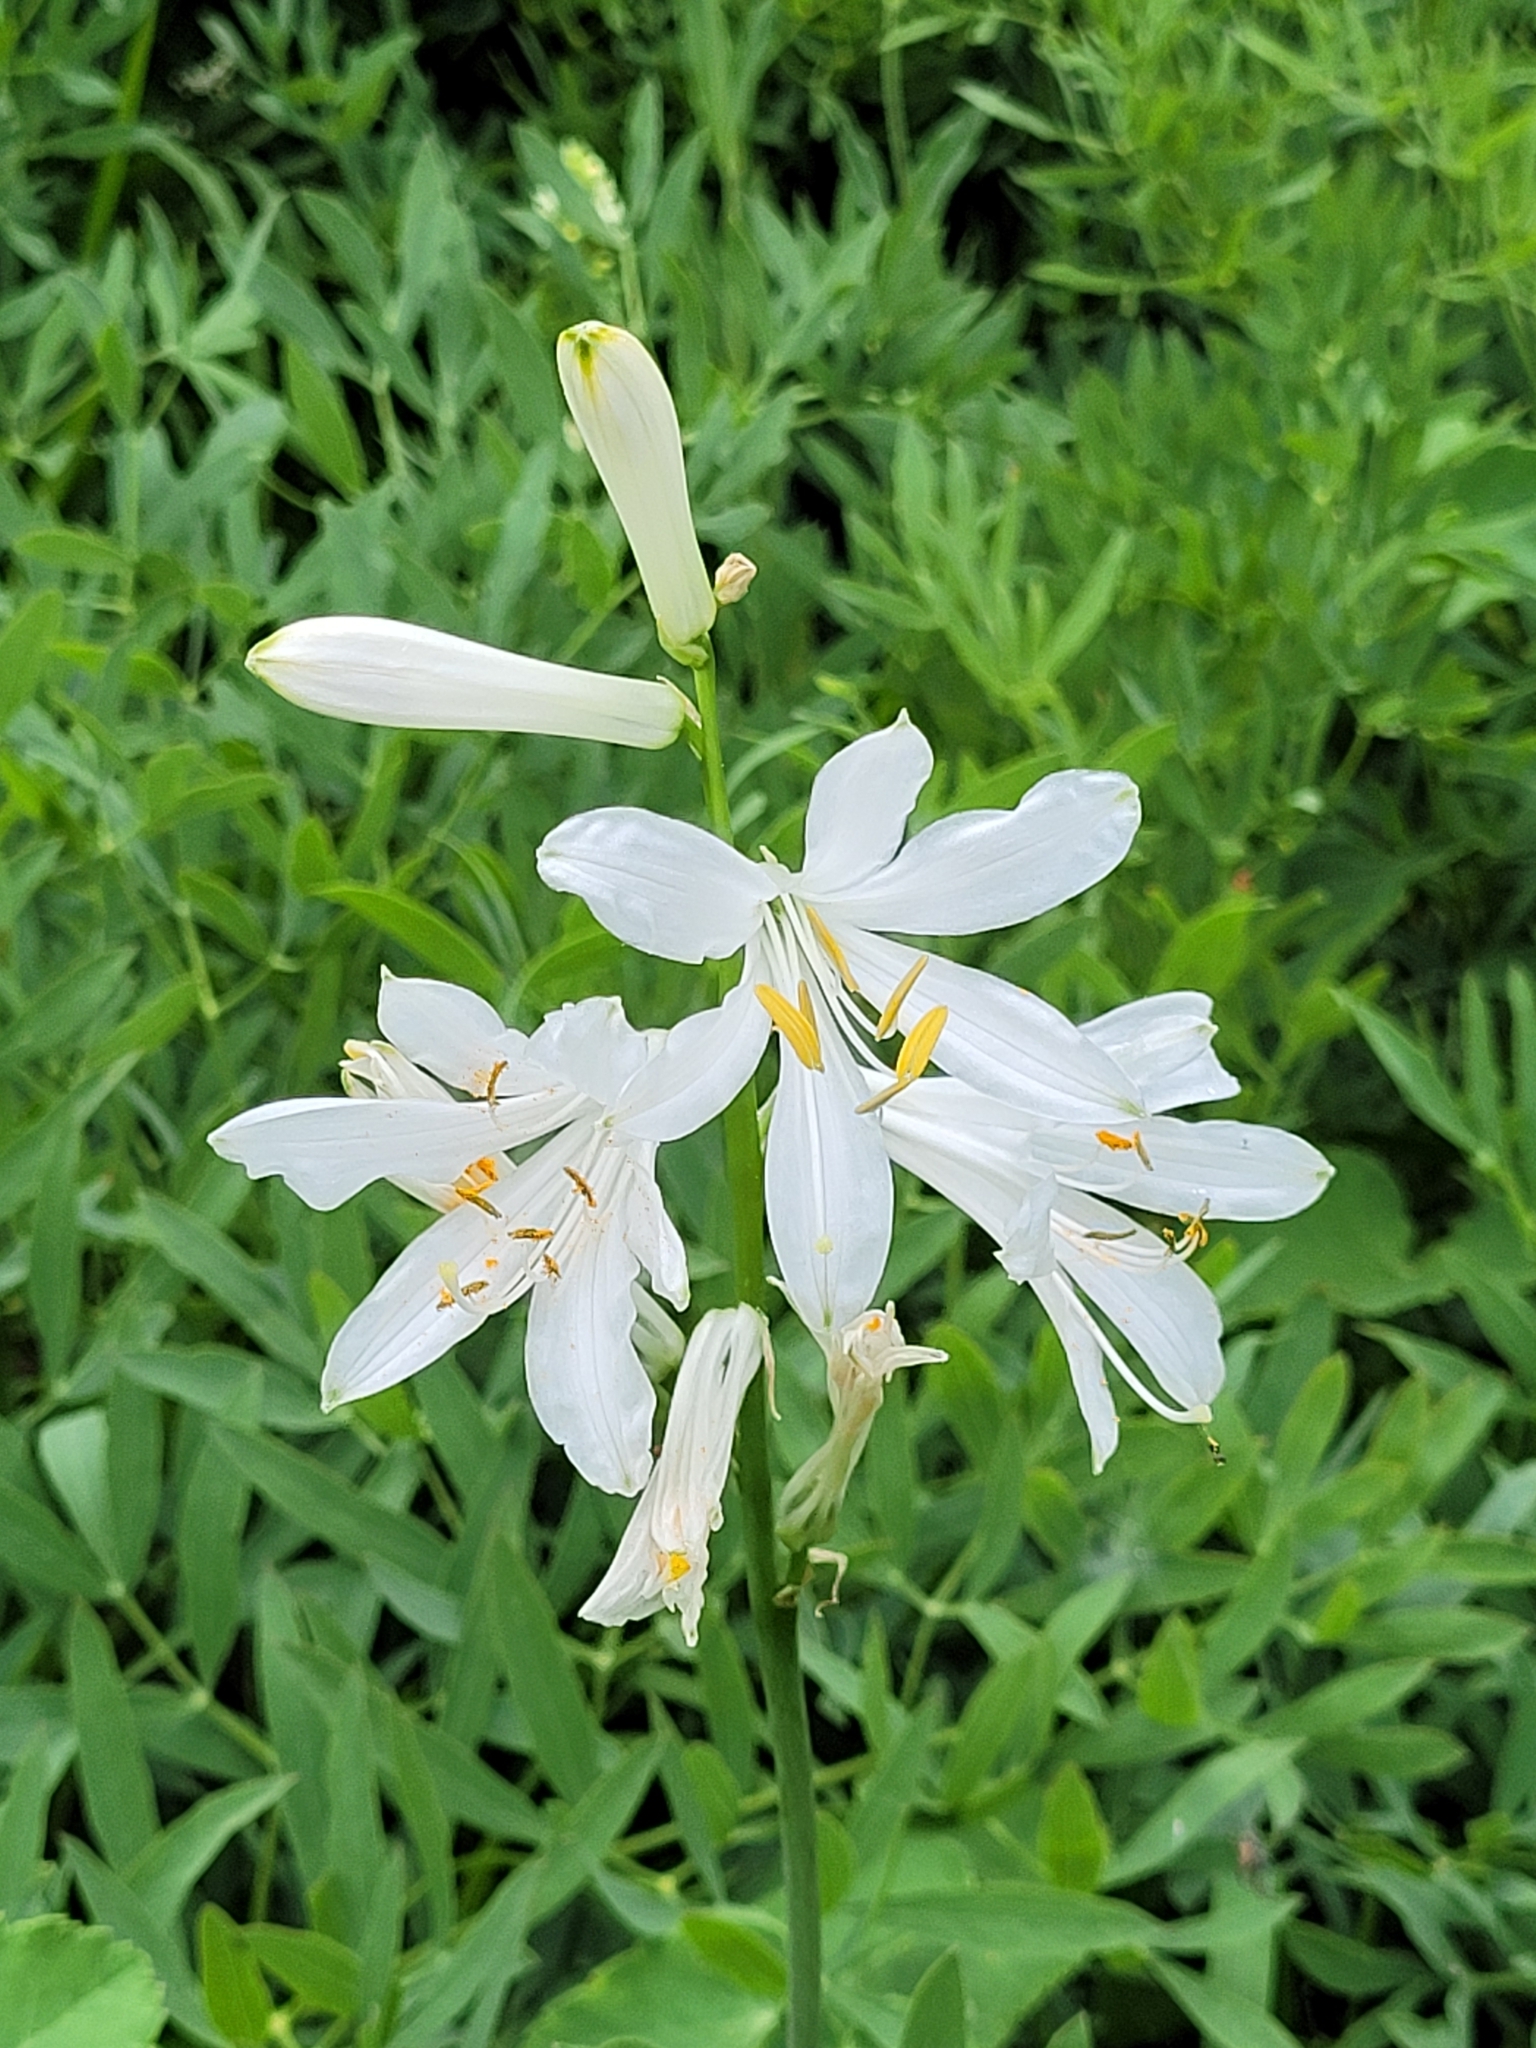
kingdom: Plantae
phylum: Tracheophyta
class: Liliopsida
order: Asparagales
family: Asparagaceae
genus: Paradisea
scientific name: Paradisea liliastrum
